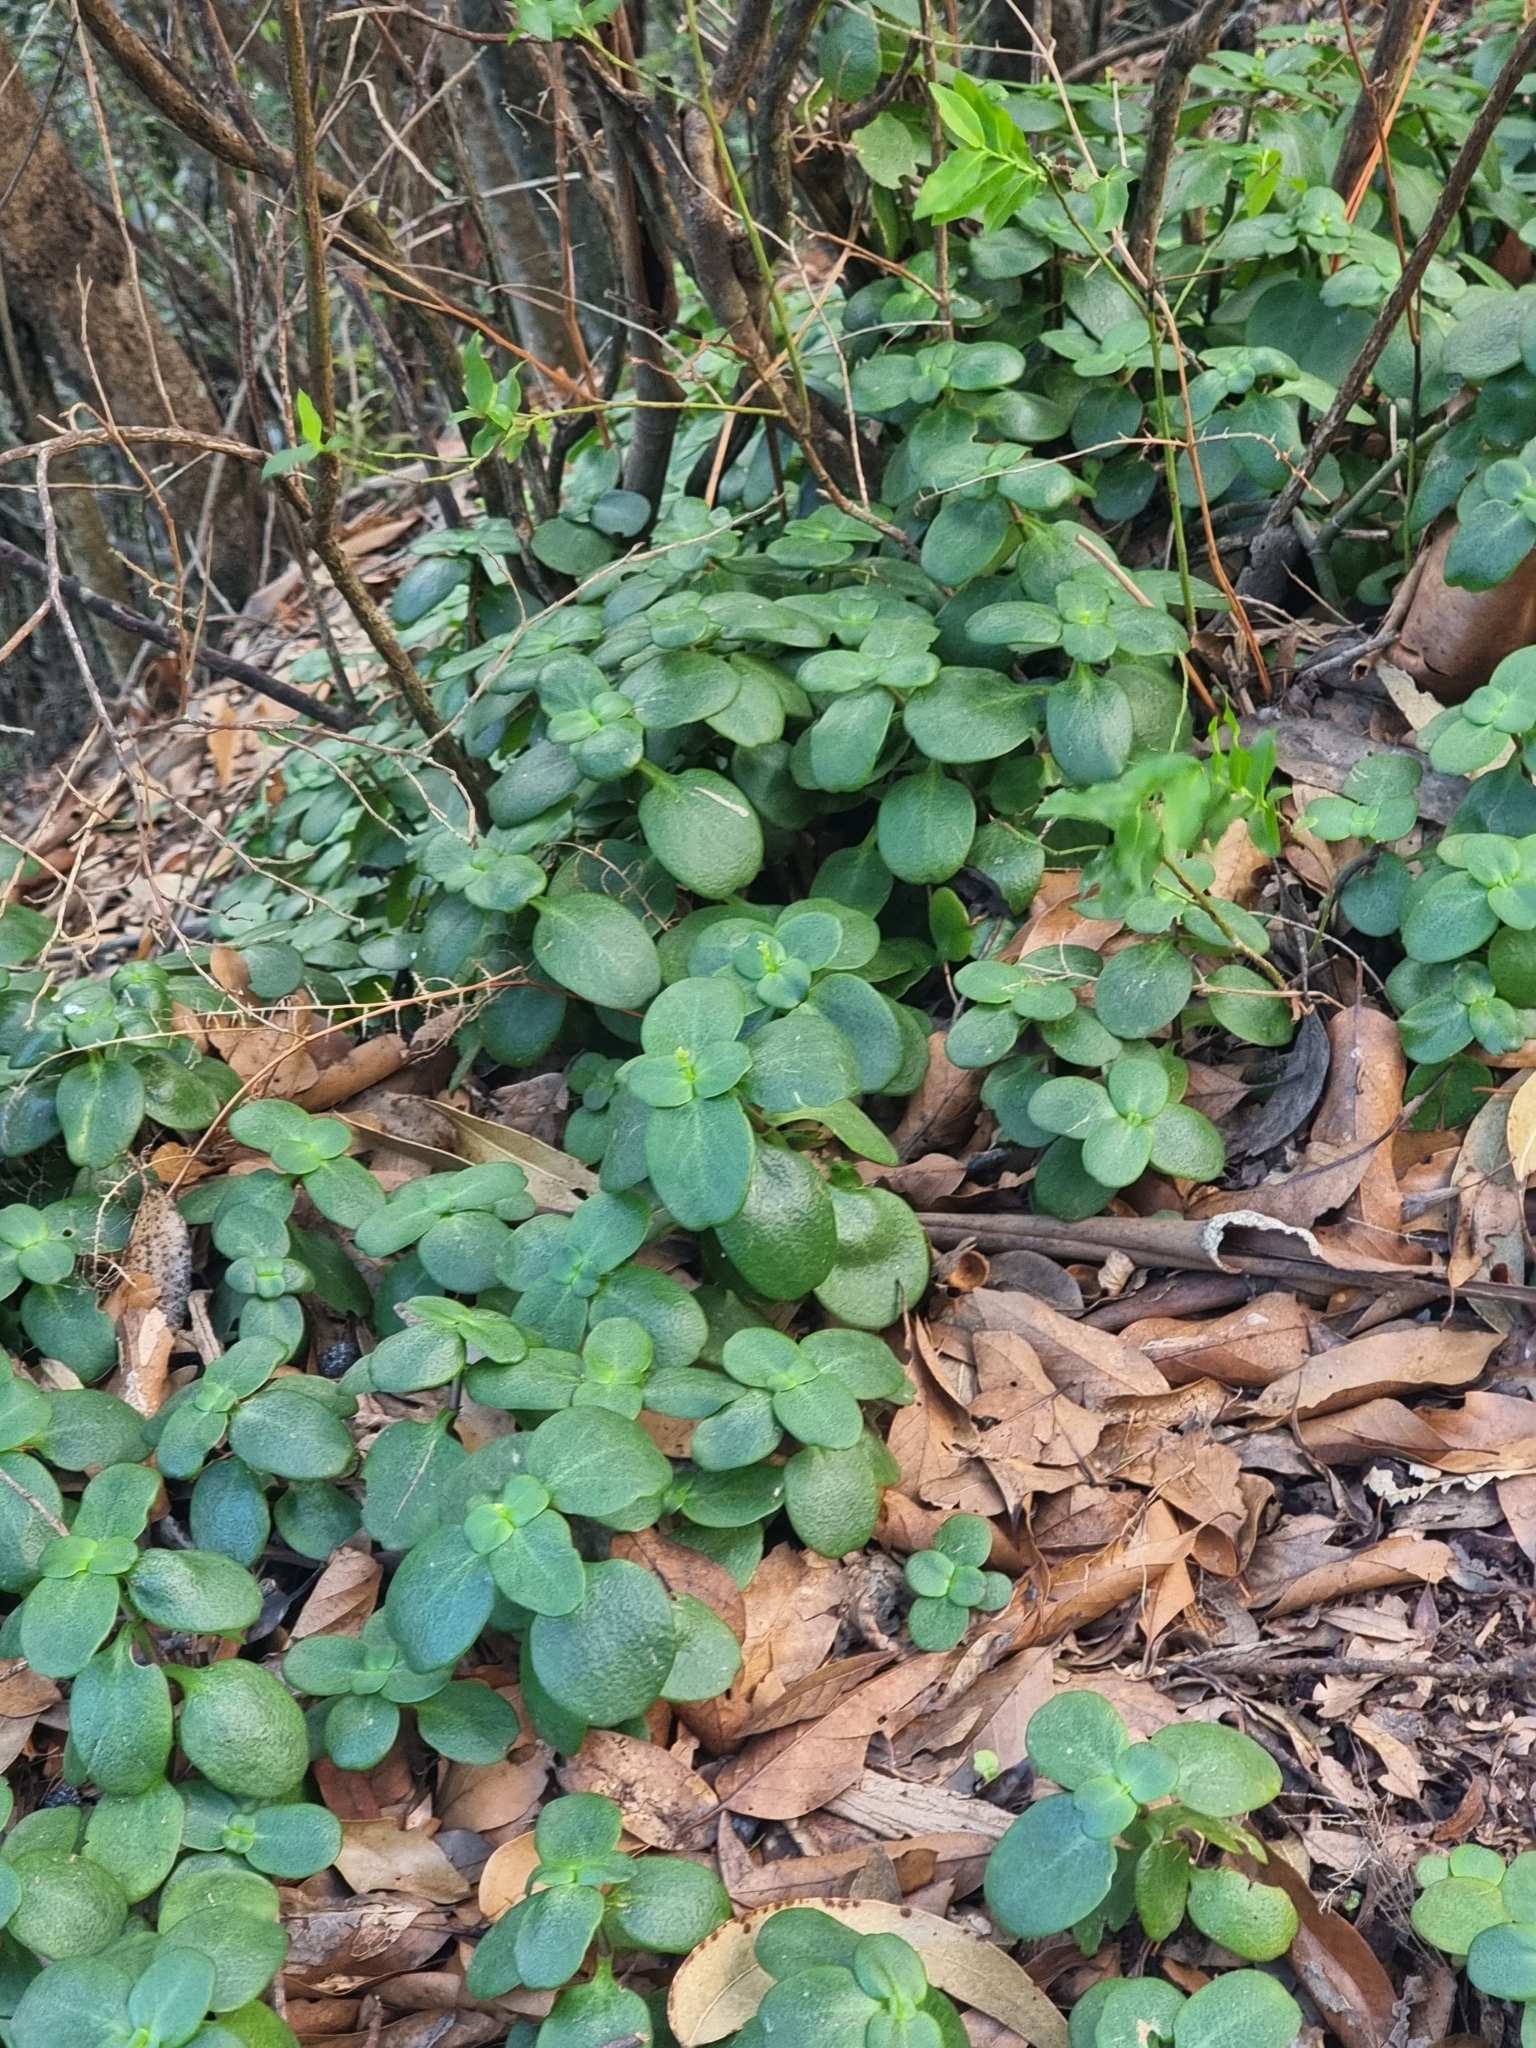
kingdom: Plantae
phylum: Tracheophyta
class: Magnoliopsida
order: Saxifragales
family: Crassulaceae
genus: Crassula
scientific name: Crassula multicava
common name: Cape province pygmyweed
